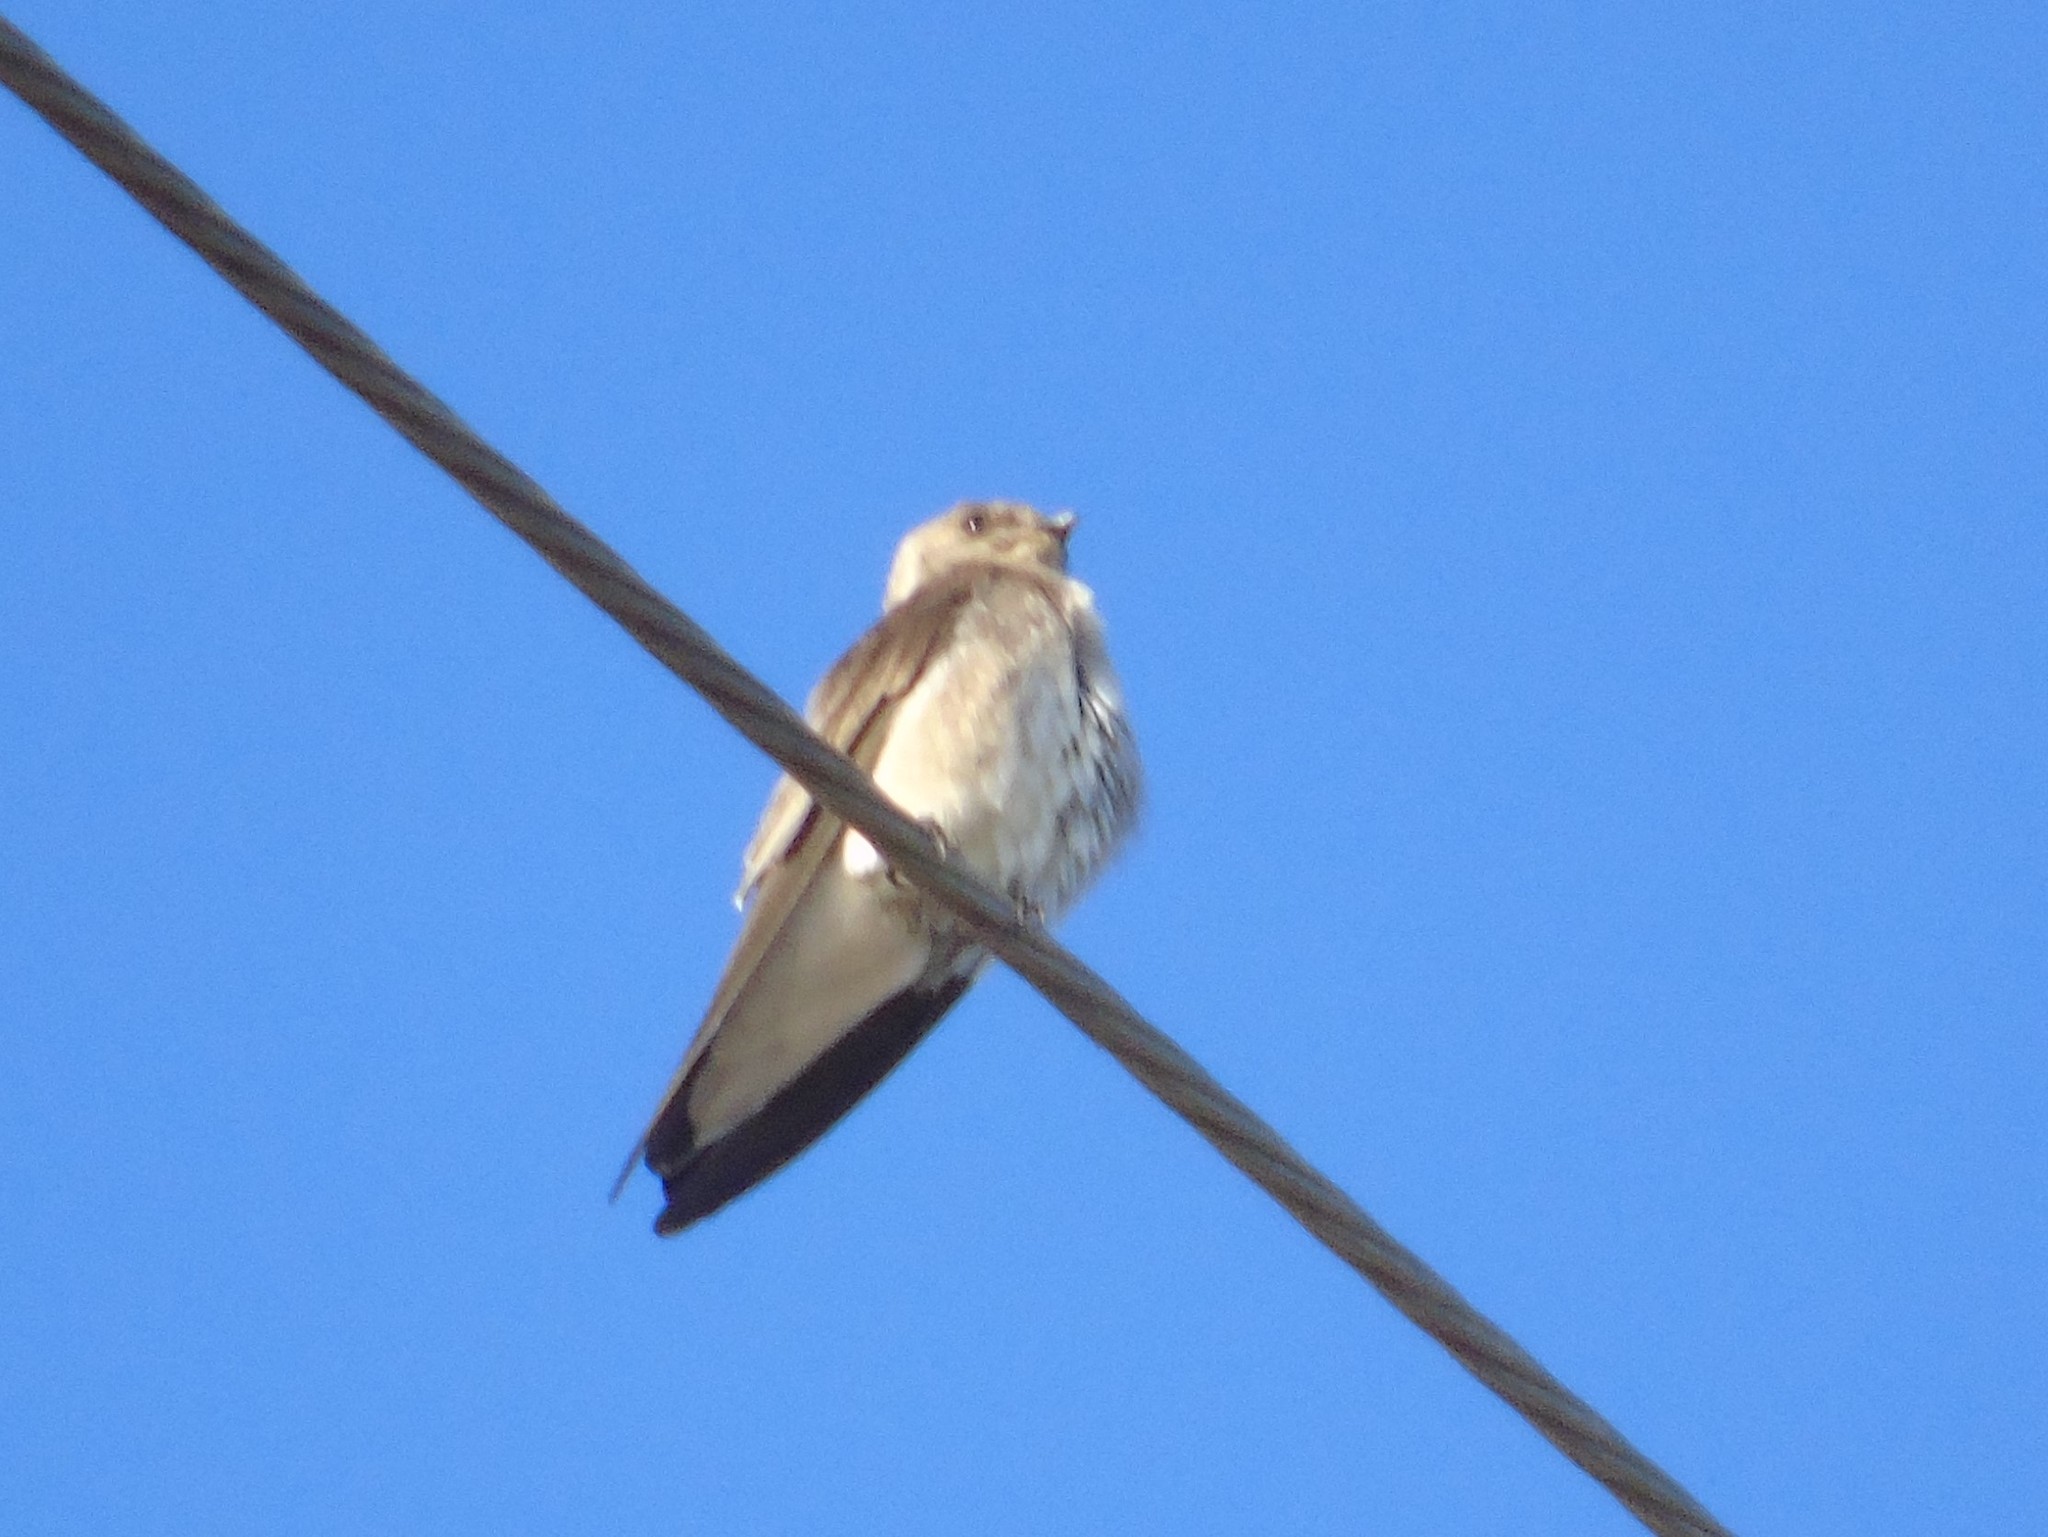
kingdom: Animalia
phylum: Chordata
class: Aves
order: Passeriformes
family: Hirundinidae
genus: Stelgidopteryx
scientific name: Stelgidopteryx serripennis
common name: Northern rough-winged swallow
